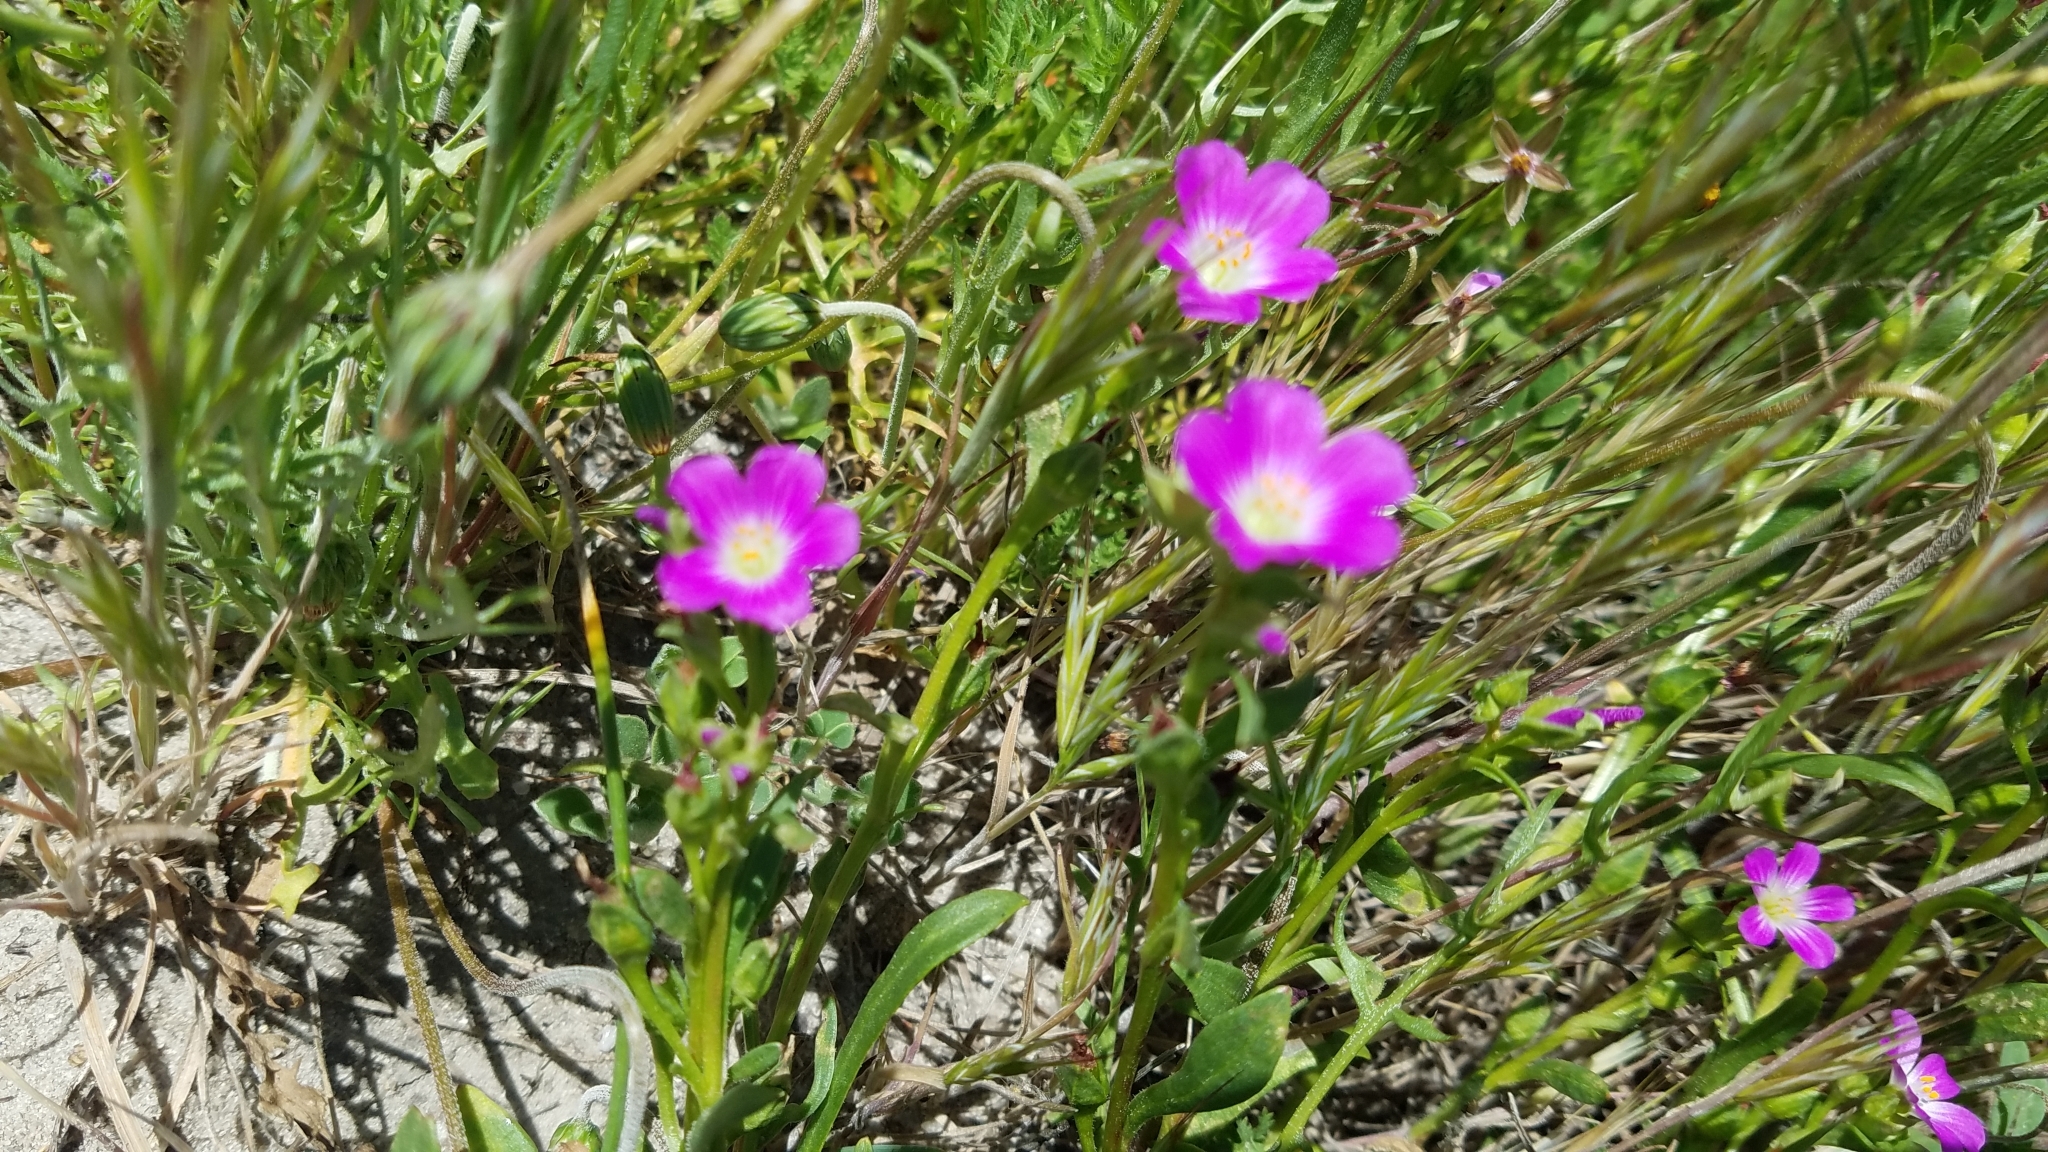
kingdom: Plantae
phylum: Tracheophyta
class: Magnoliopsida
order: Caryophyllales
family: Montiaceae
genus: Calandrinia
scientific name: Calandrinia menziesii
